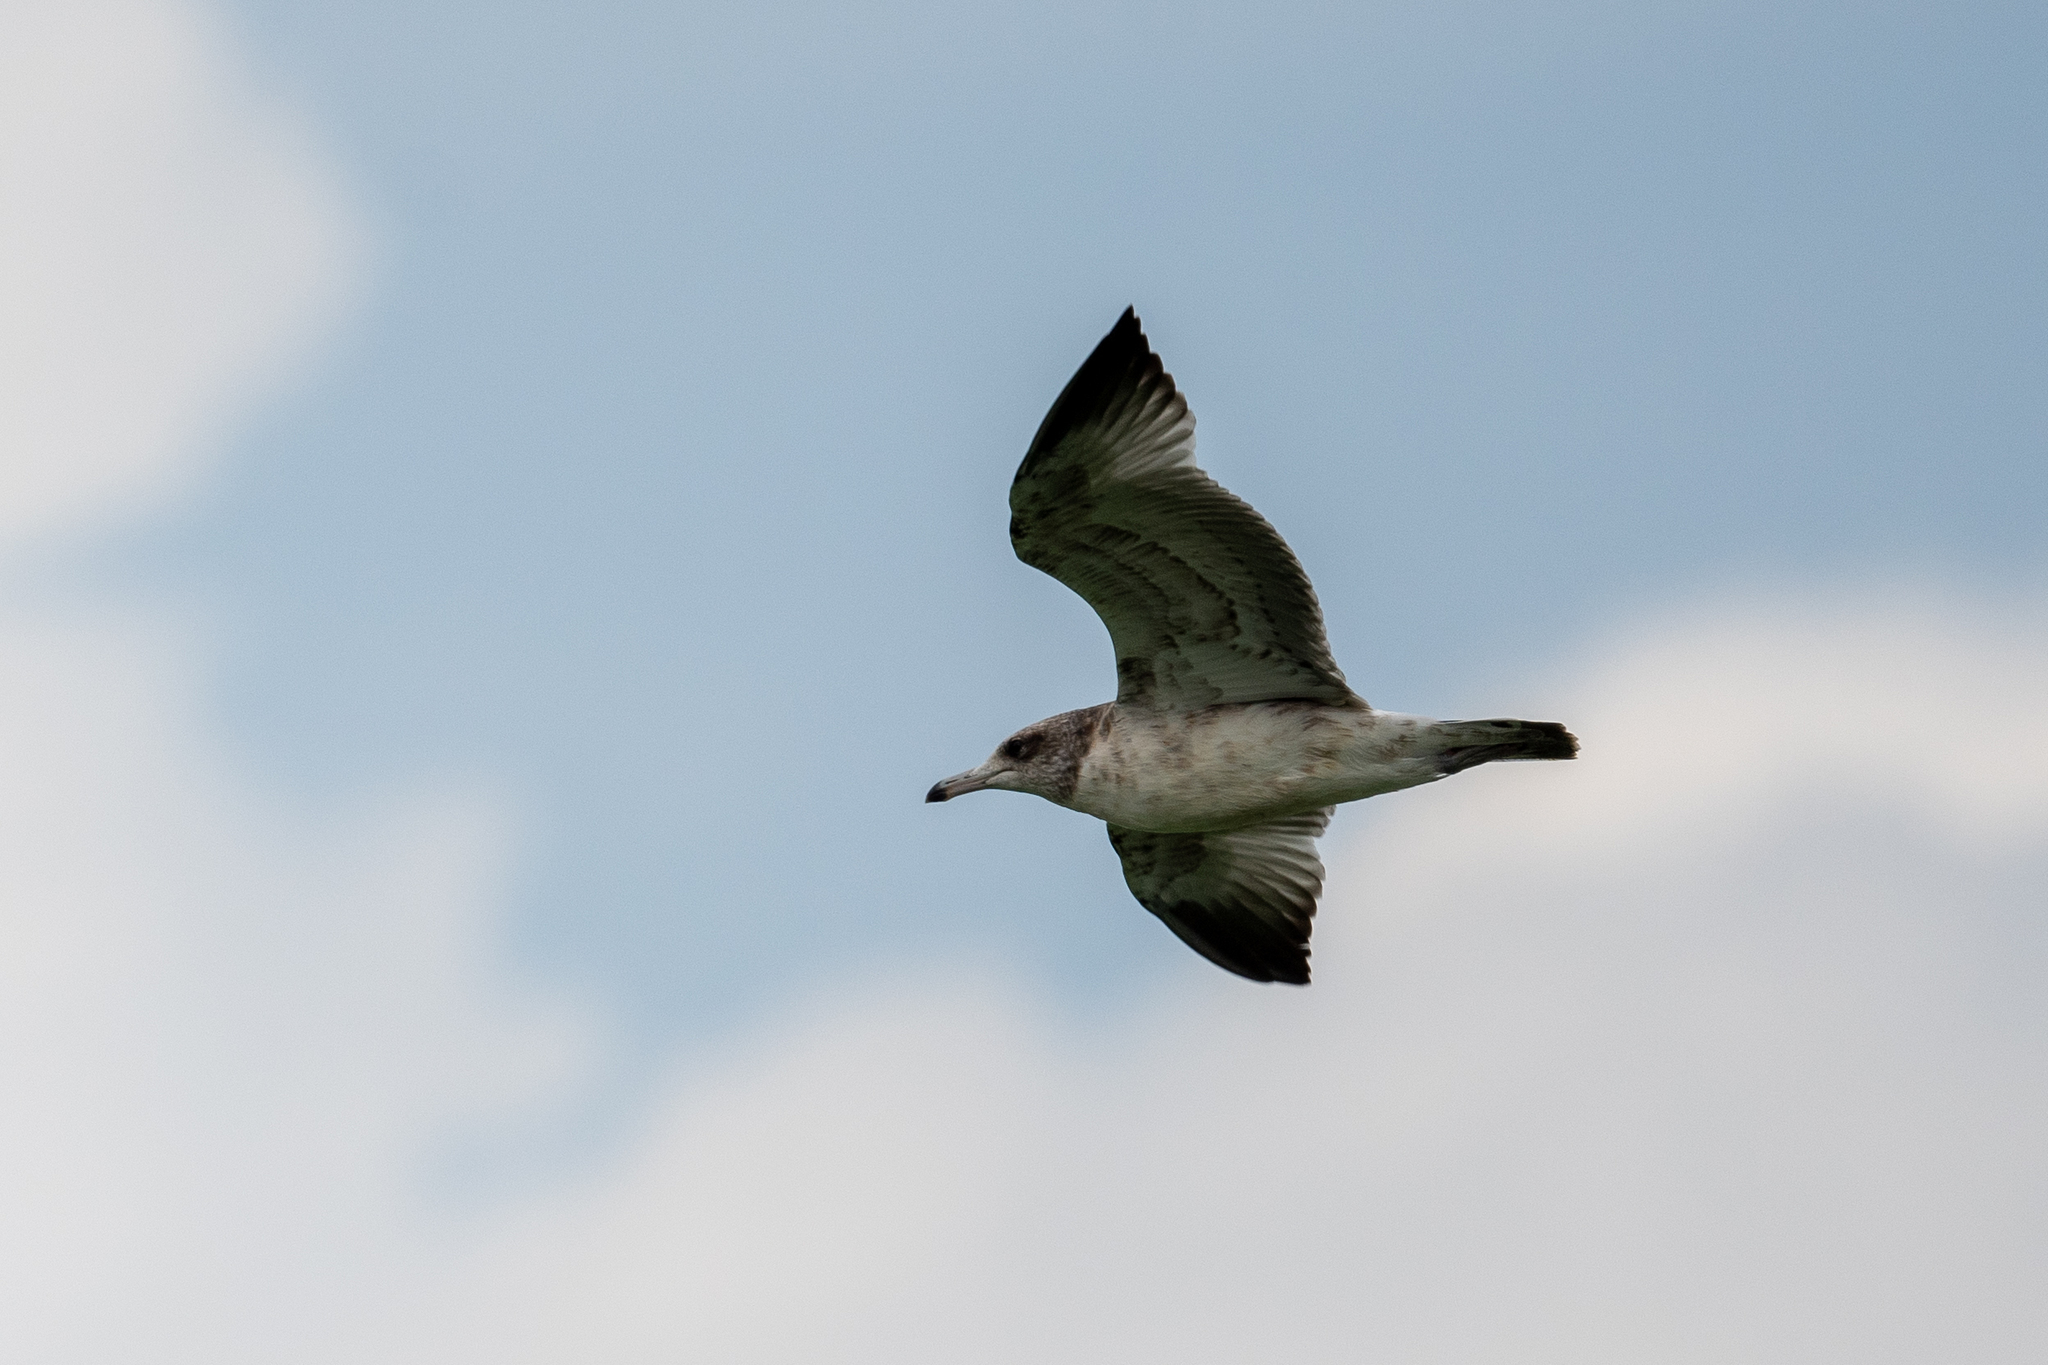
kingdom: Animalia
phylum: Chordata
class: Aves
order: Charadriiformes
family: Laridae
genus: Larus
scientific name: Larus californicus
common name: California gull
